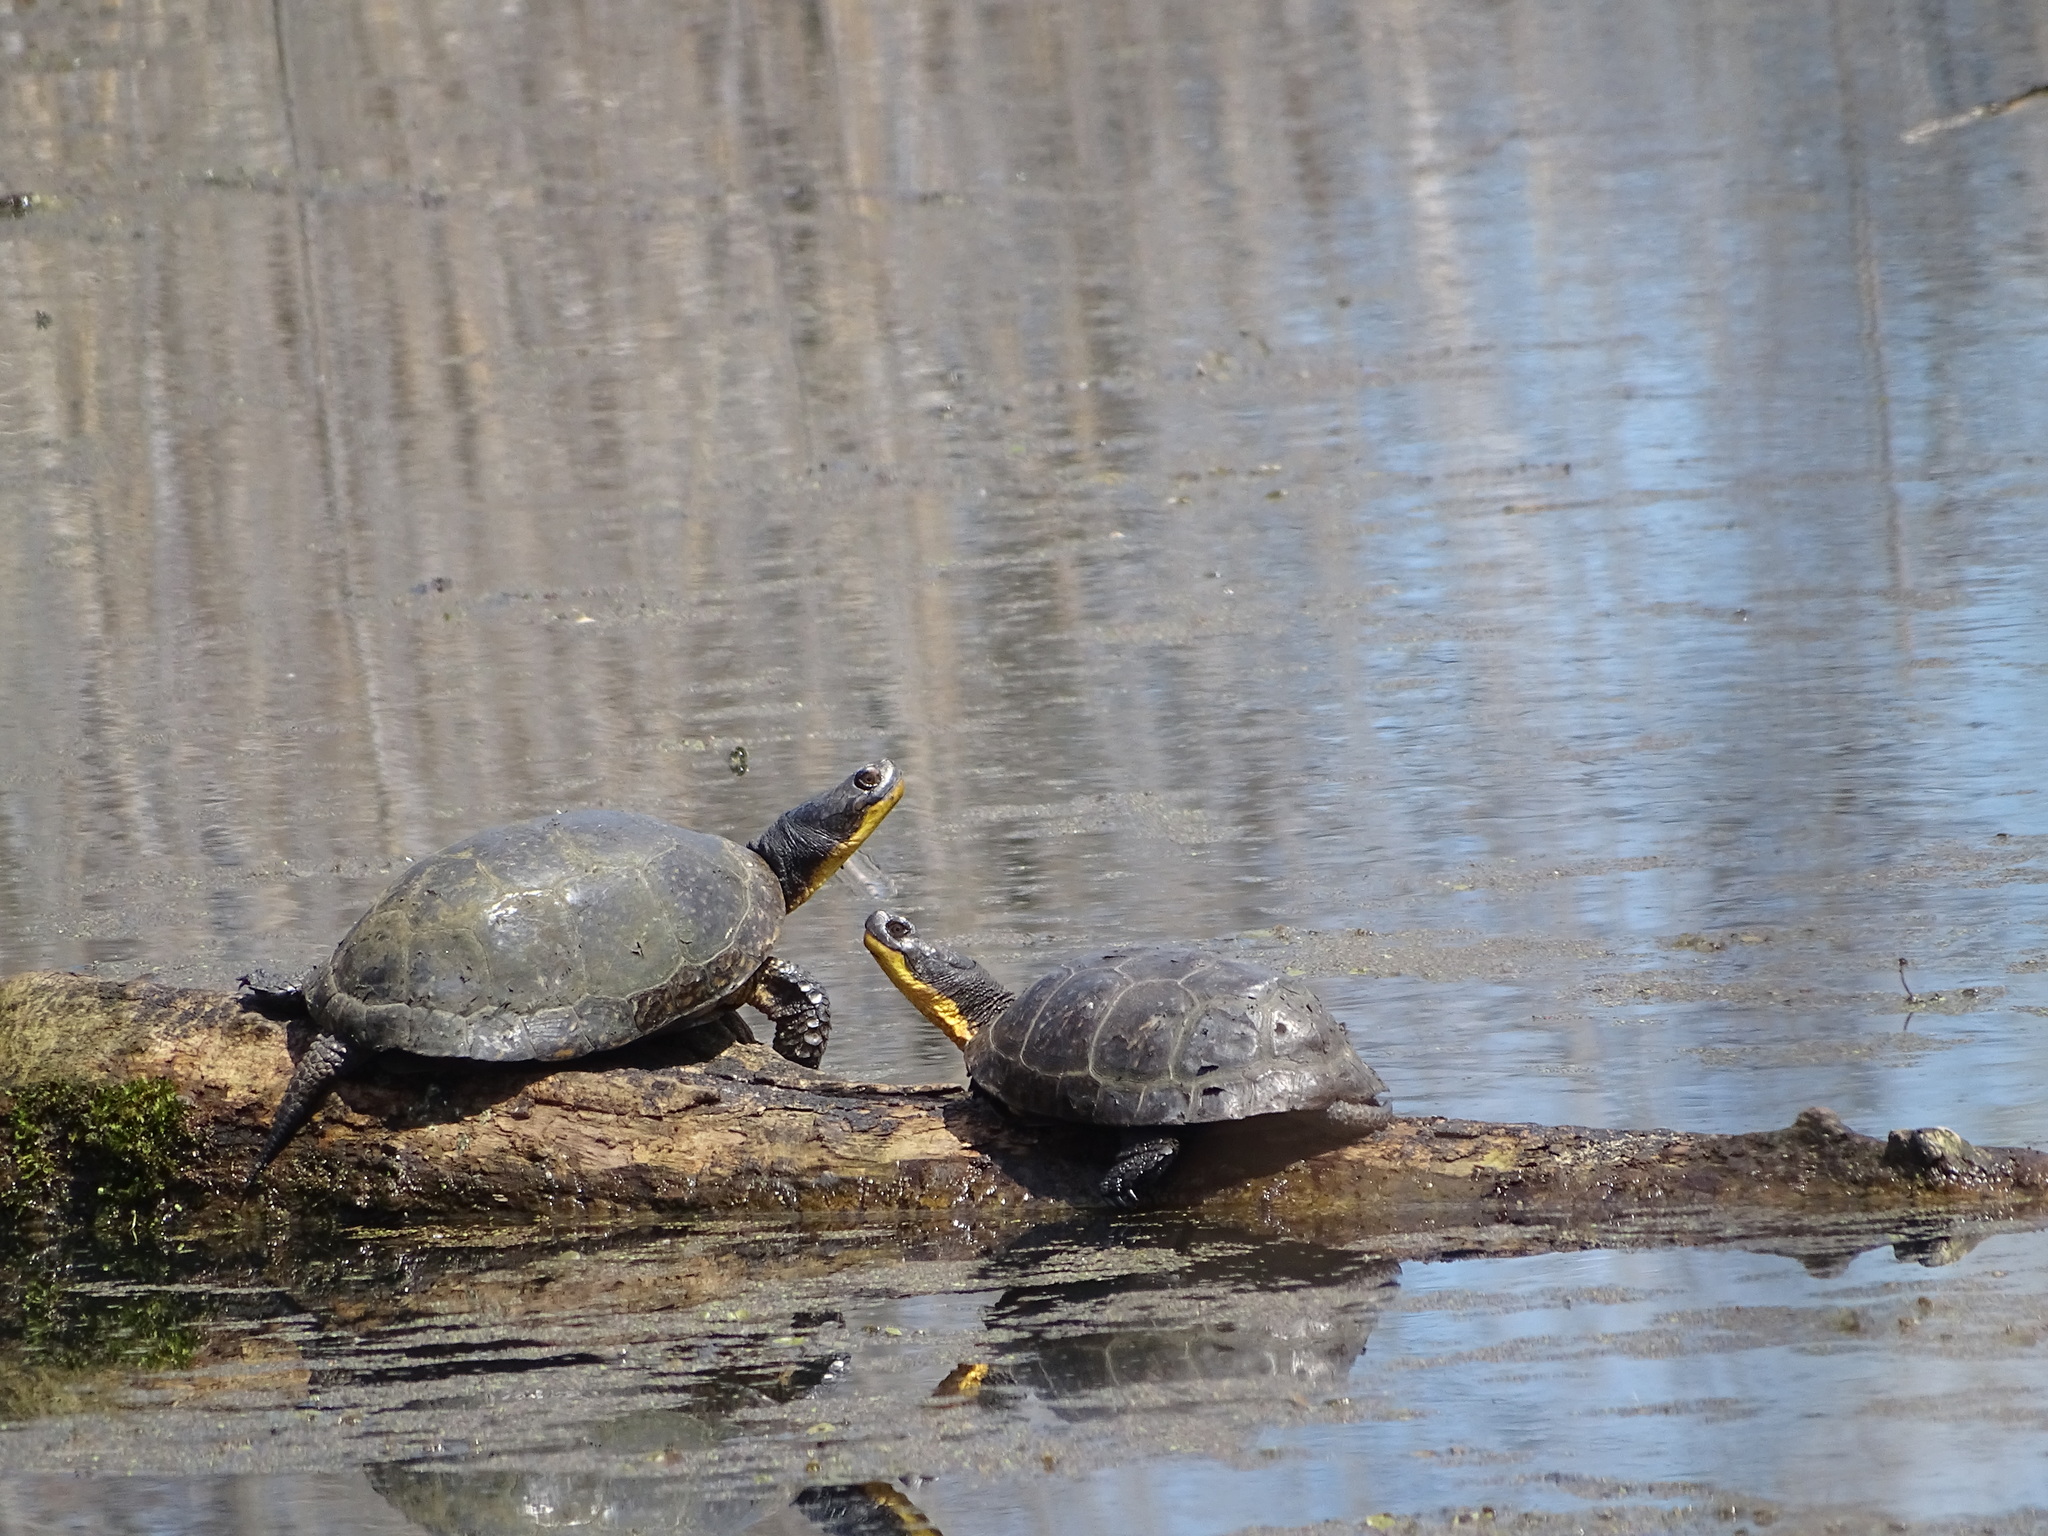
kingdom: Animalia
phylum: Chordata
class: Testudines
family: Emydidae
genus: Emys
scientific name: Emys blandingii
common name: Blanding's turtle
